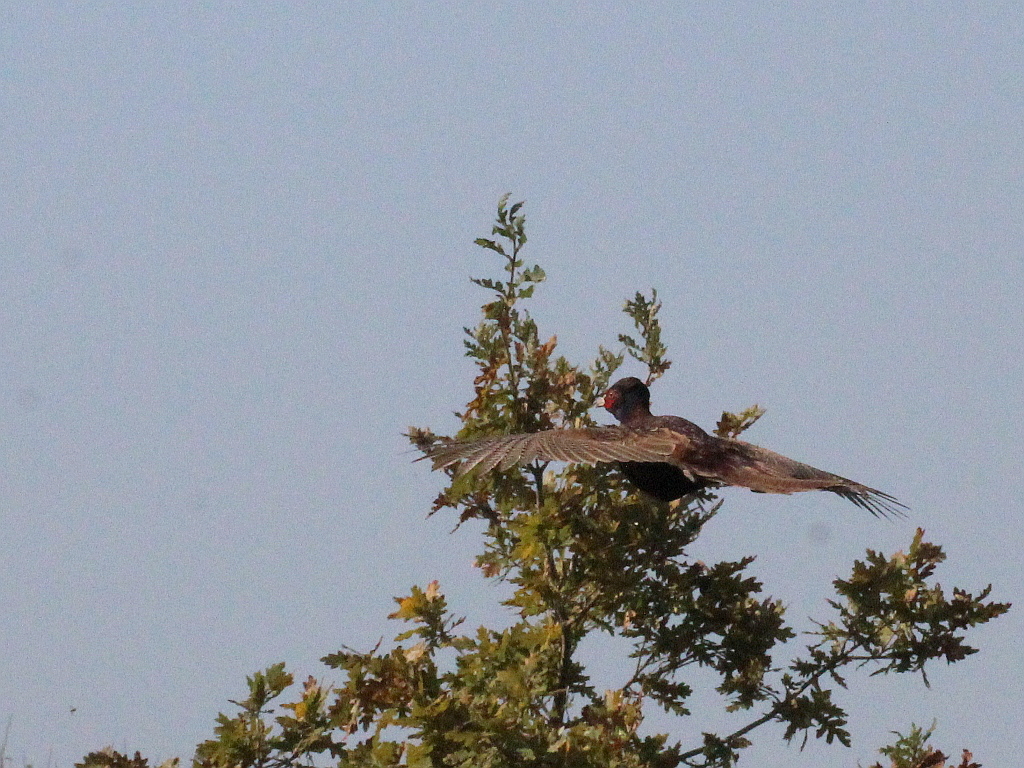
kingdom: Animalia
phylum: Chordata
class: Aves
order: Galliformes
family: Phasianidae
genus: Phasianus
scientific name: Phasianus colchicus
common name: Common pheasant
